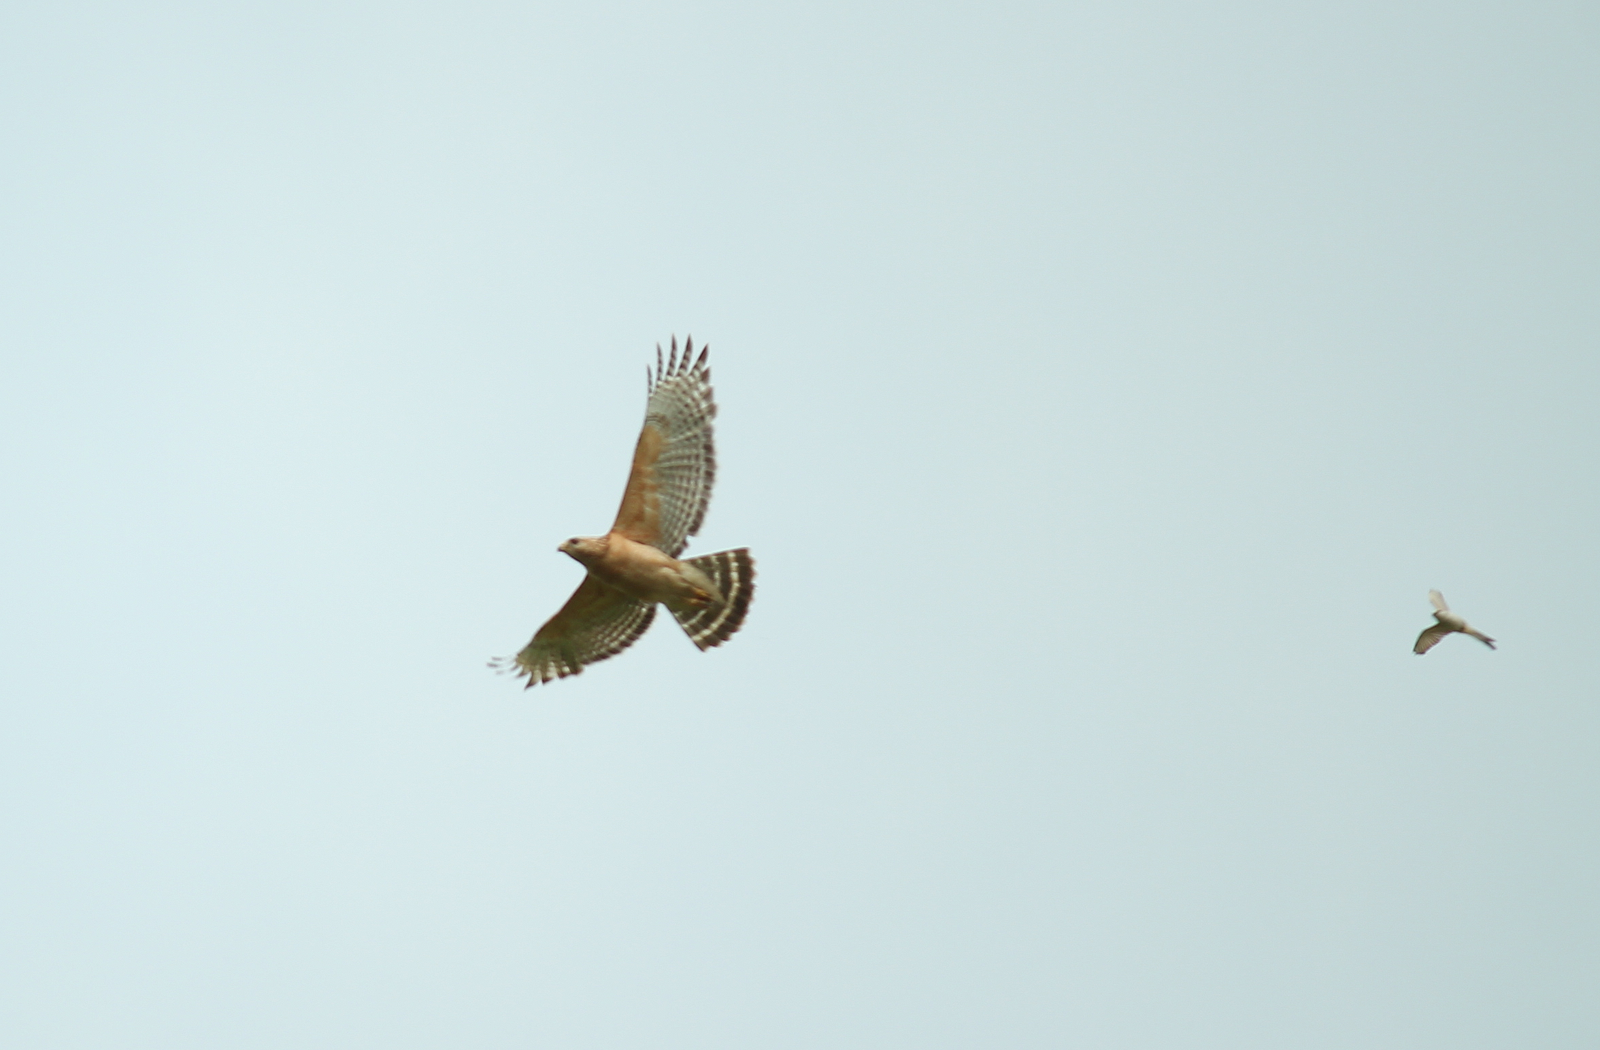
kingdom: Animalia
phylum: Chordata
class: Aves
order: Accipitriformes
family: Accipitridae
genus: Buteo
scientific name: Buteo lineatus
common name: Red-shouldered hawk
